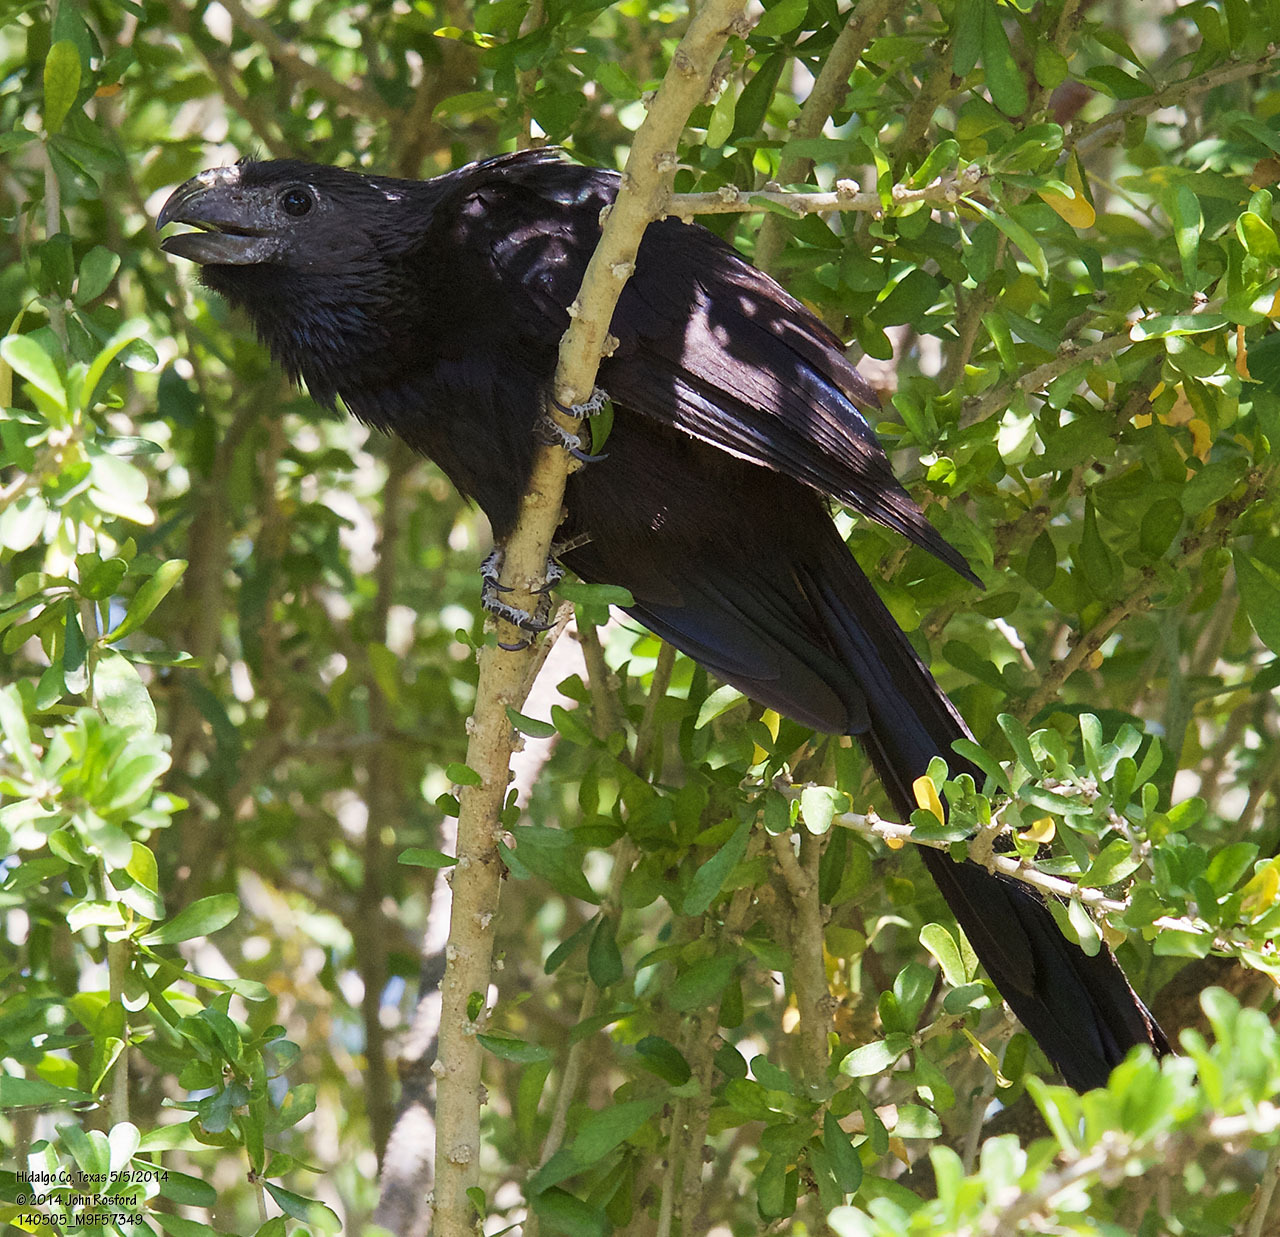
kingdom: Animalia
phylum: Chordata
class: Aves
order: Cuculiformes
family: Cuculidae
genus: Crotophaga
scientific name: Crotophaga sulcirostris
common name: Groove-billed ani
